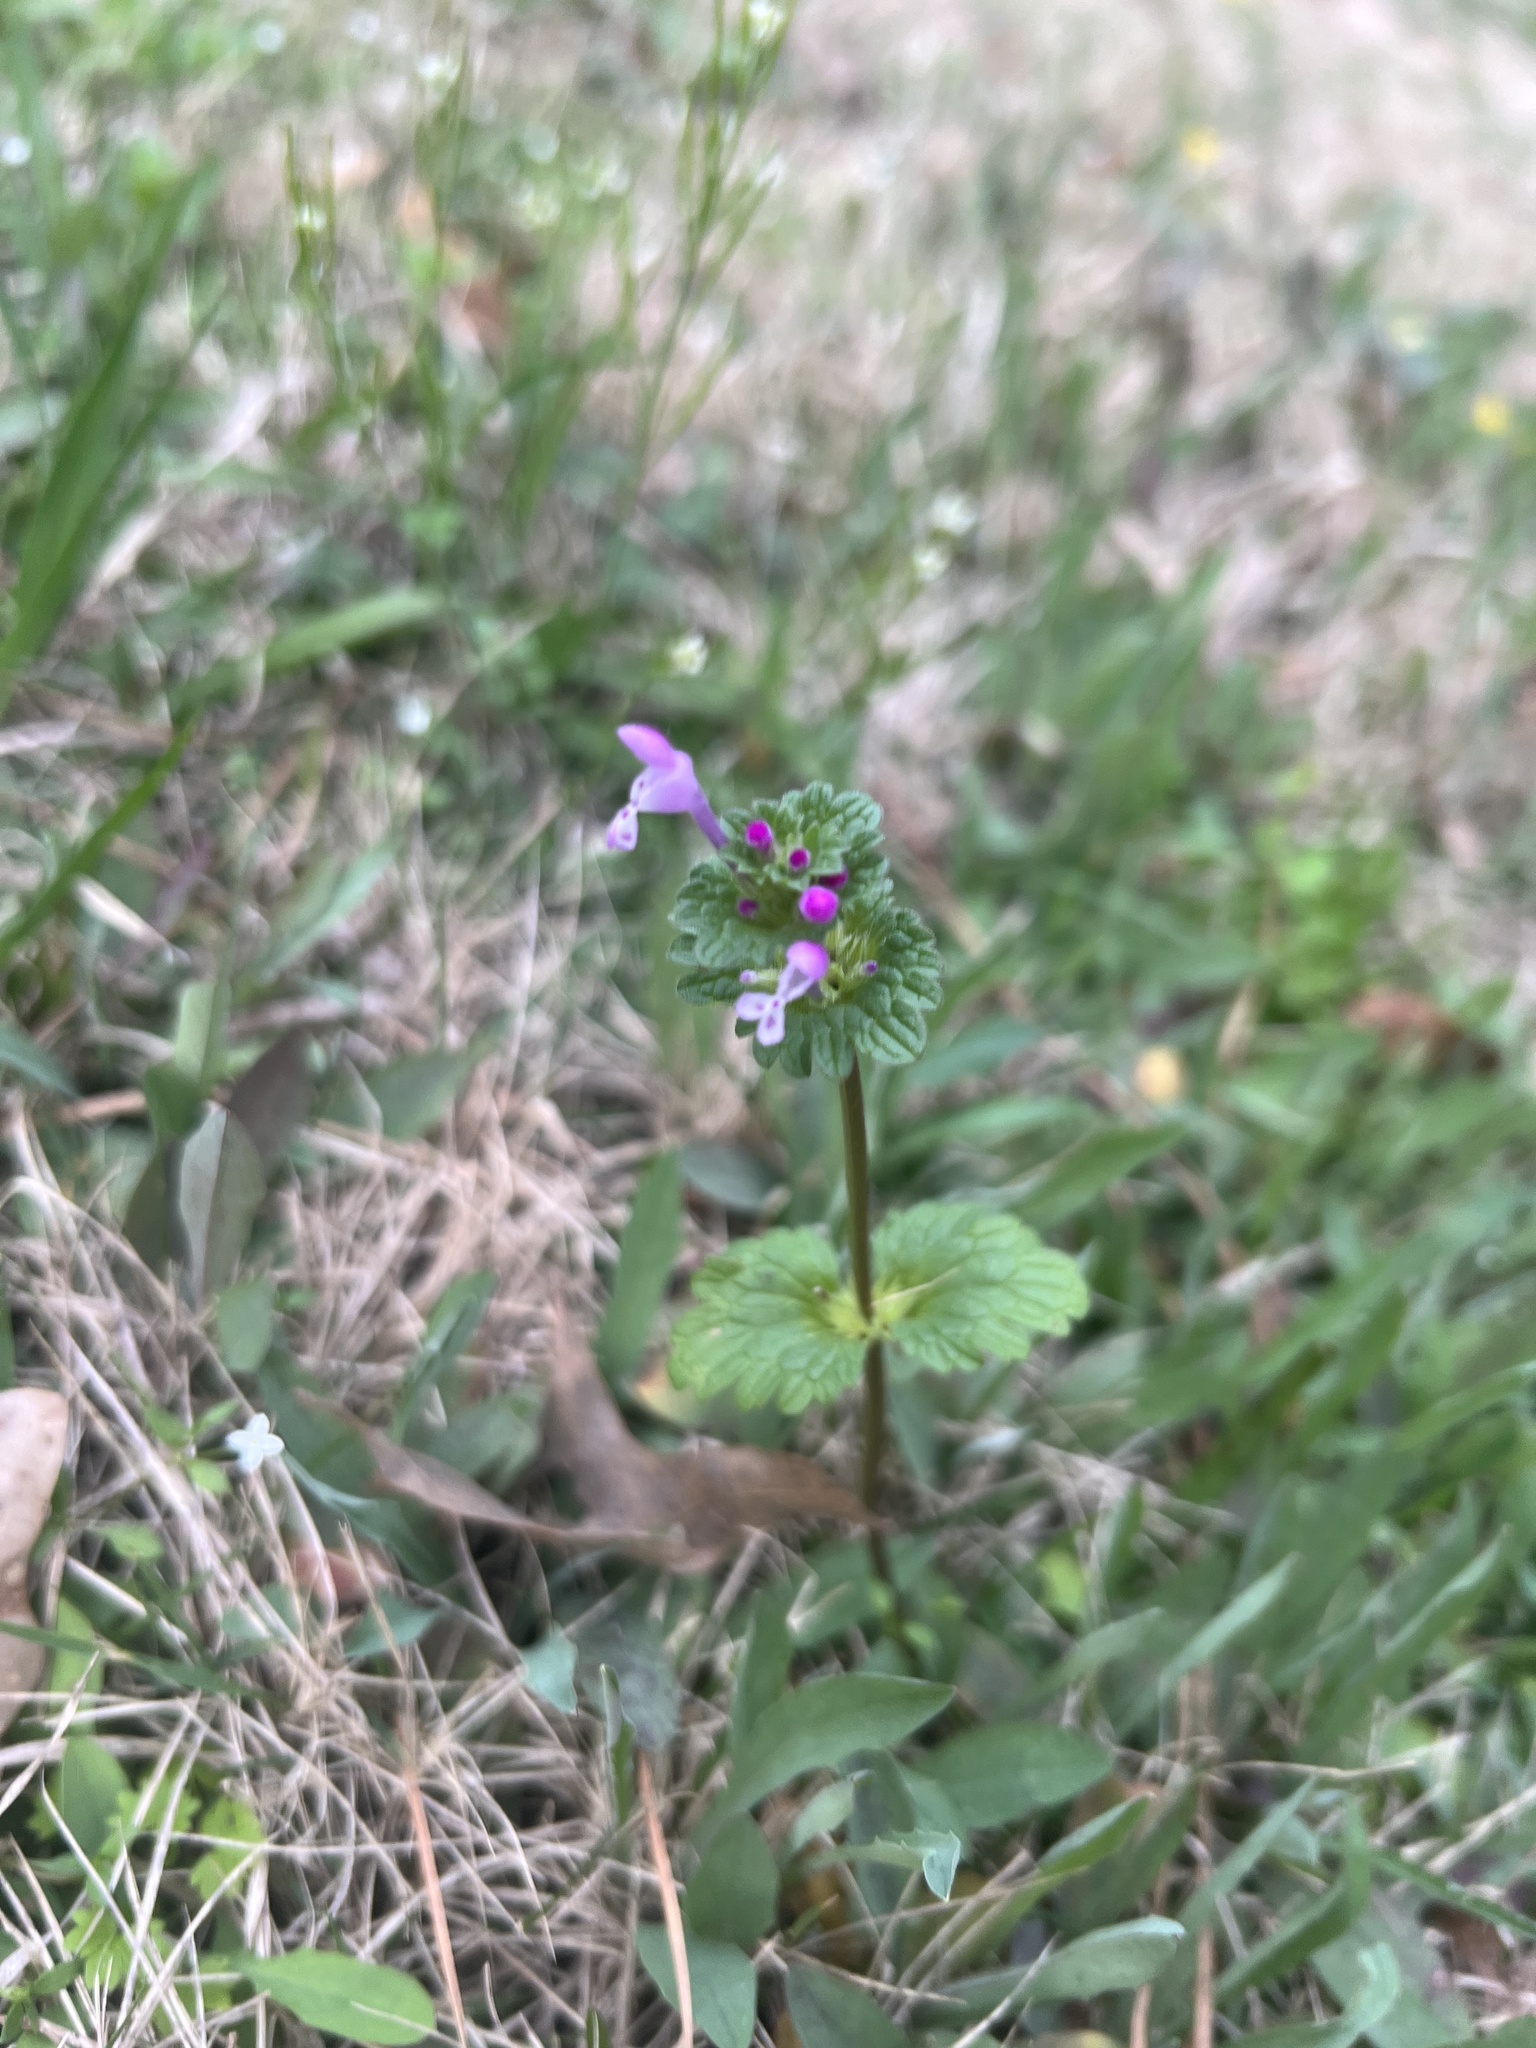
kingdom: Plantae
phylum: Tracheophyta
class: Magnoliopsida
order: Lamiales
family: Lamiaceae
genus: Lamium
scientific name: Lamium amplexicaule
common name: Henbit dead-nettle
